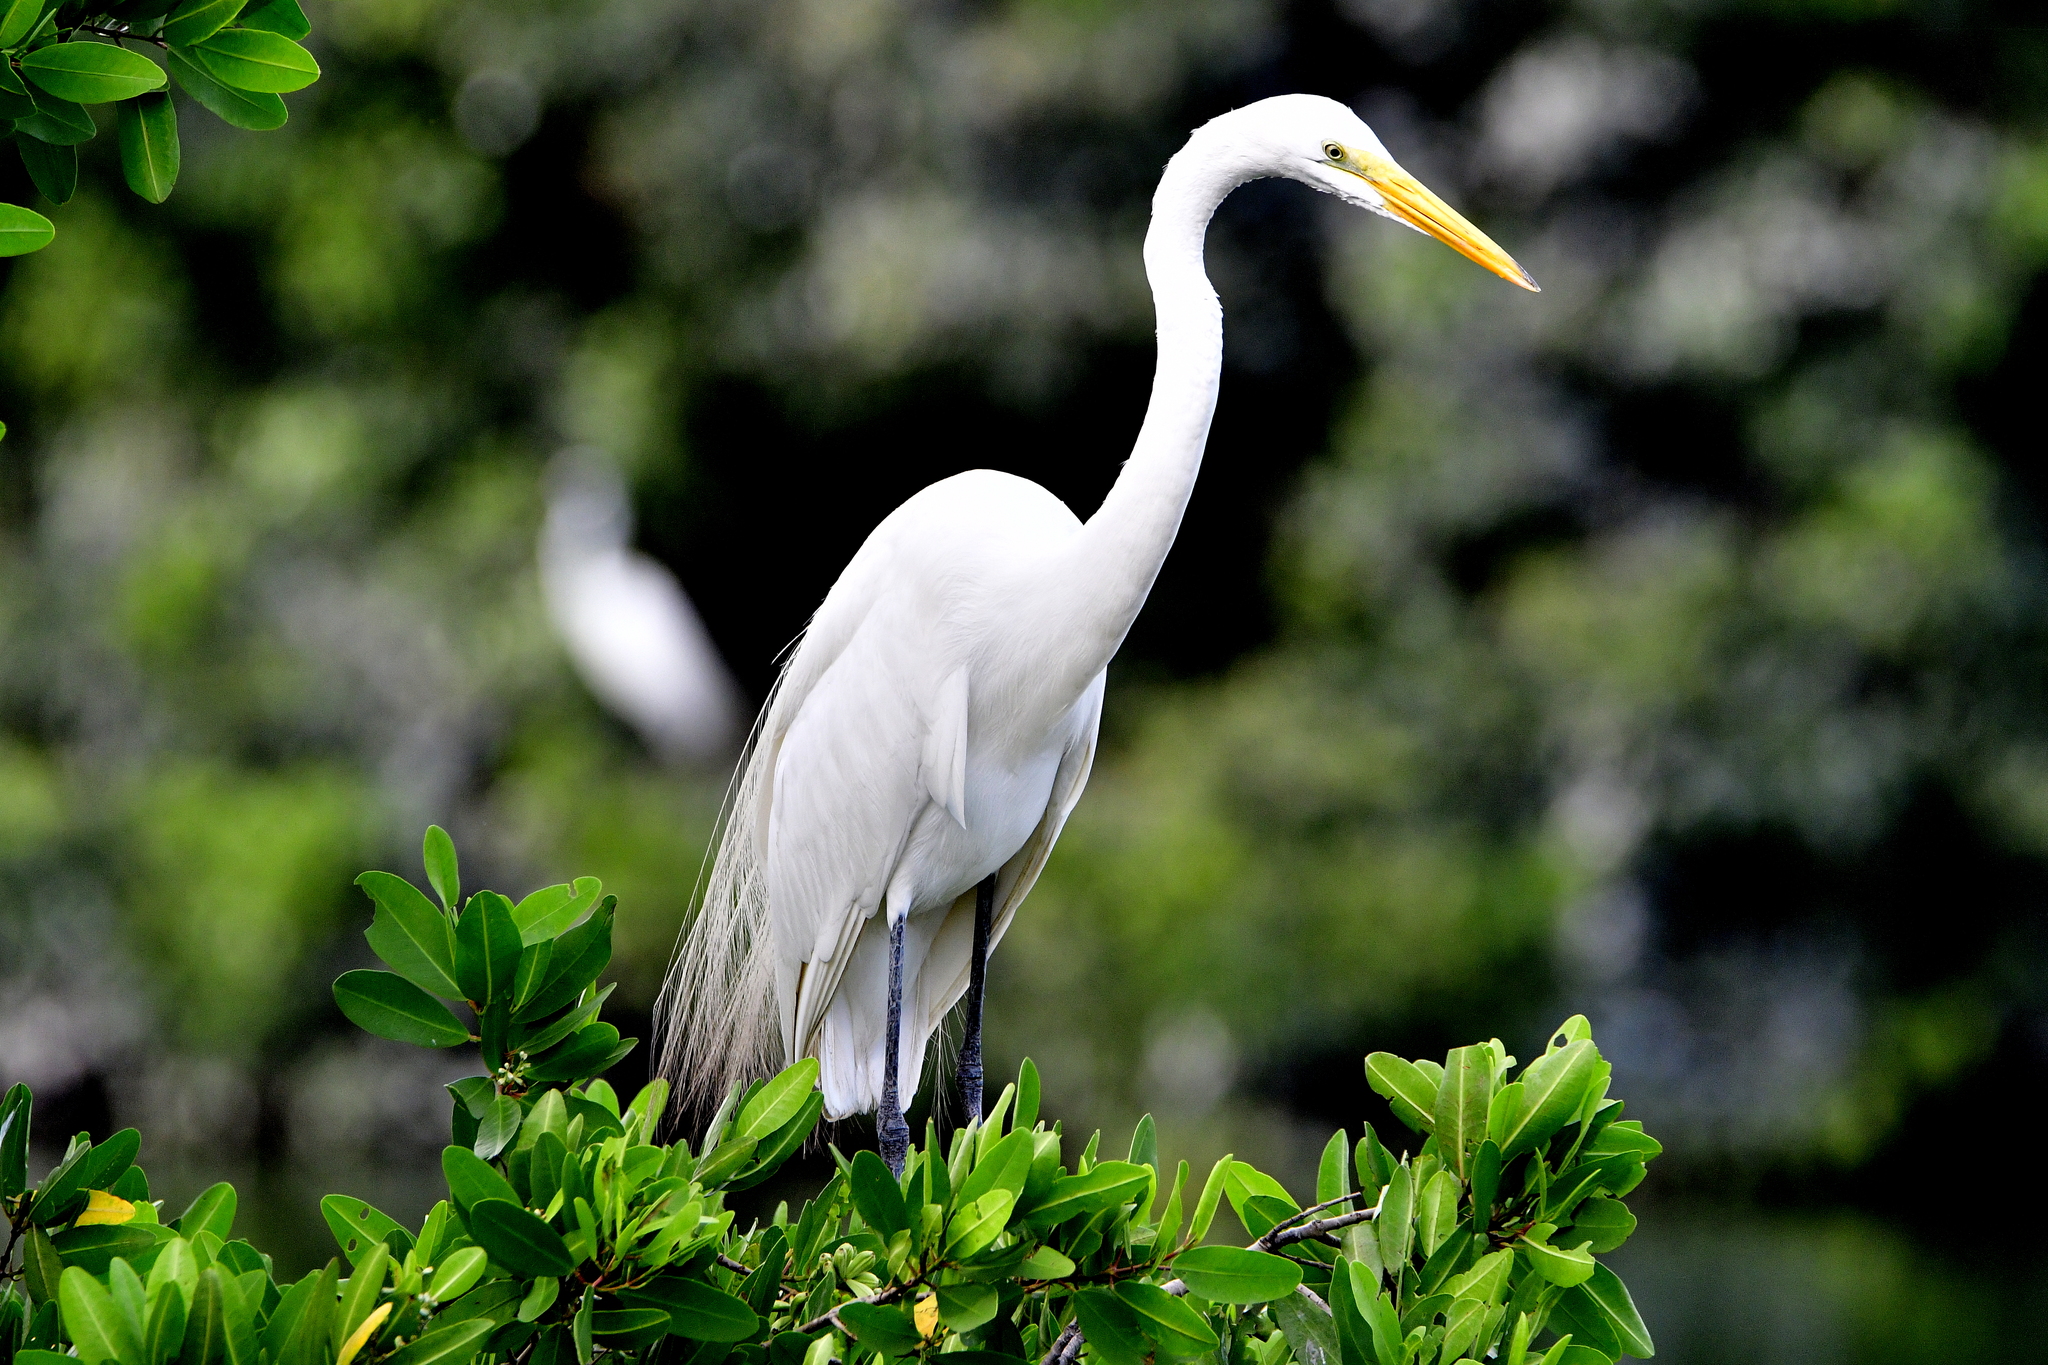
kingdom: Animalia
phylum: Chordata
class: Aves
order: Pelecaniformes
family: Ardeidae
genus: Ardea
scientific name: Ardea alba
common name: Great egret
